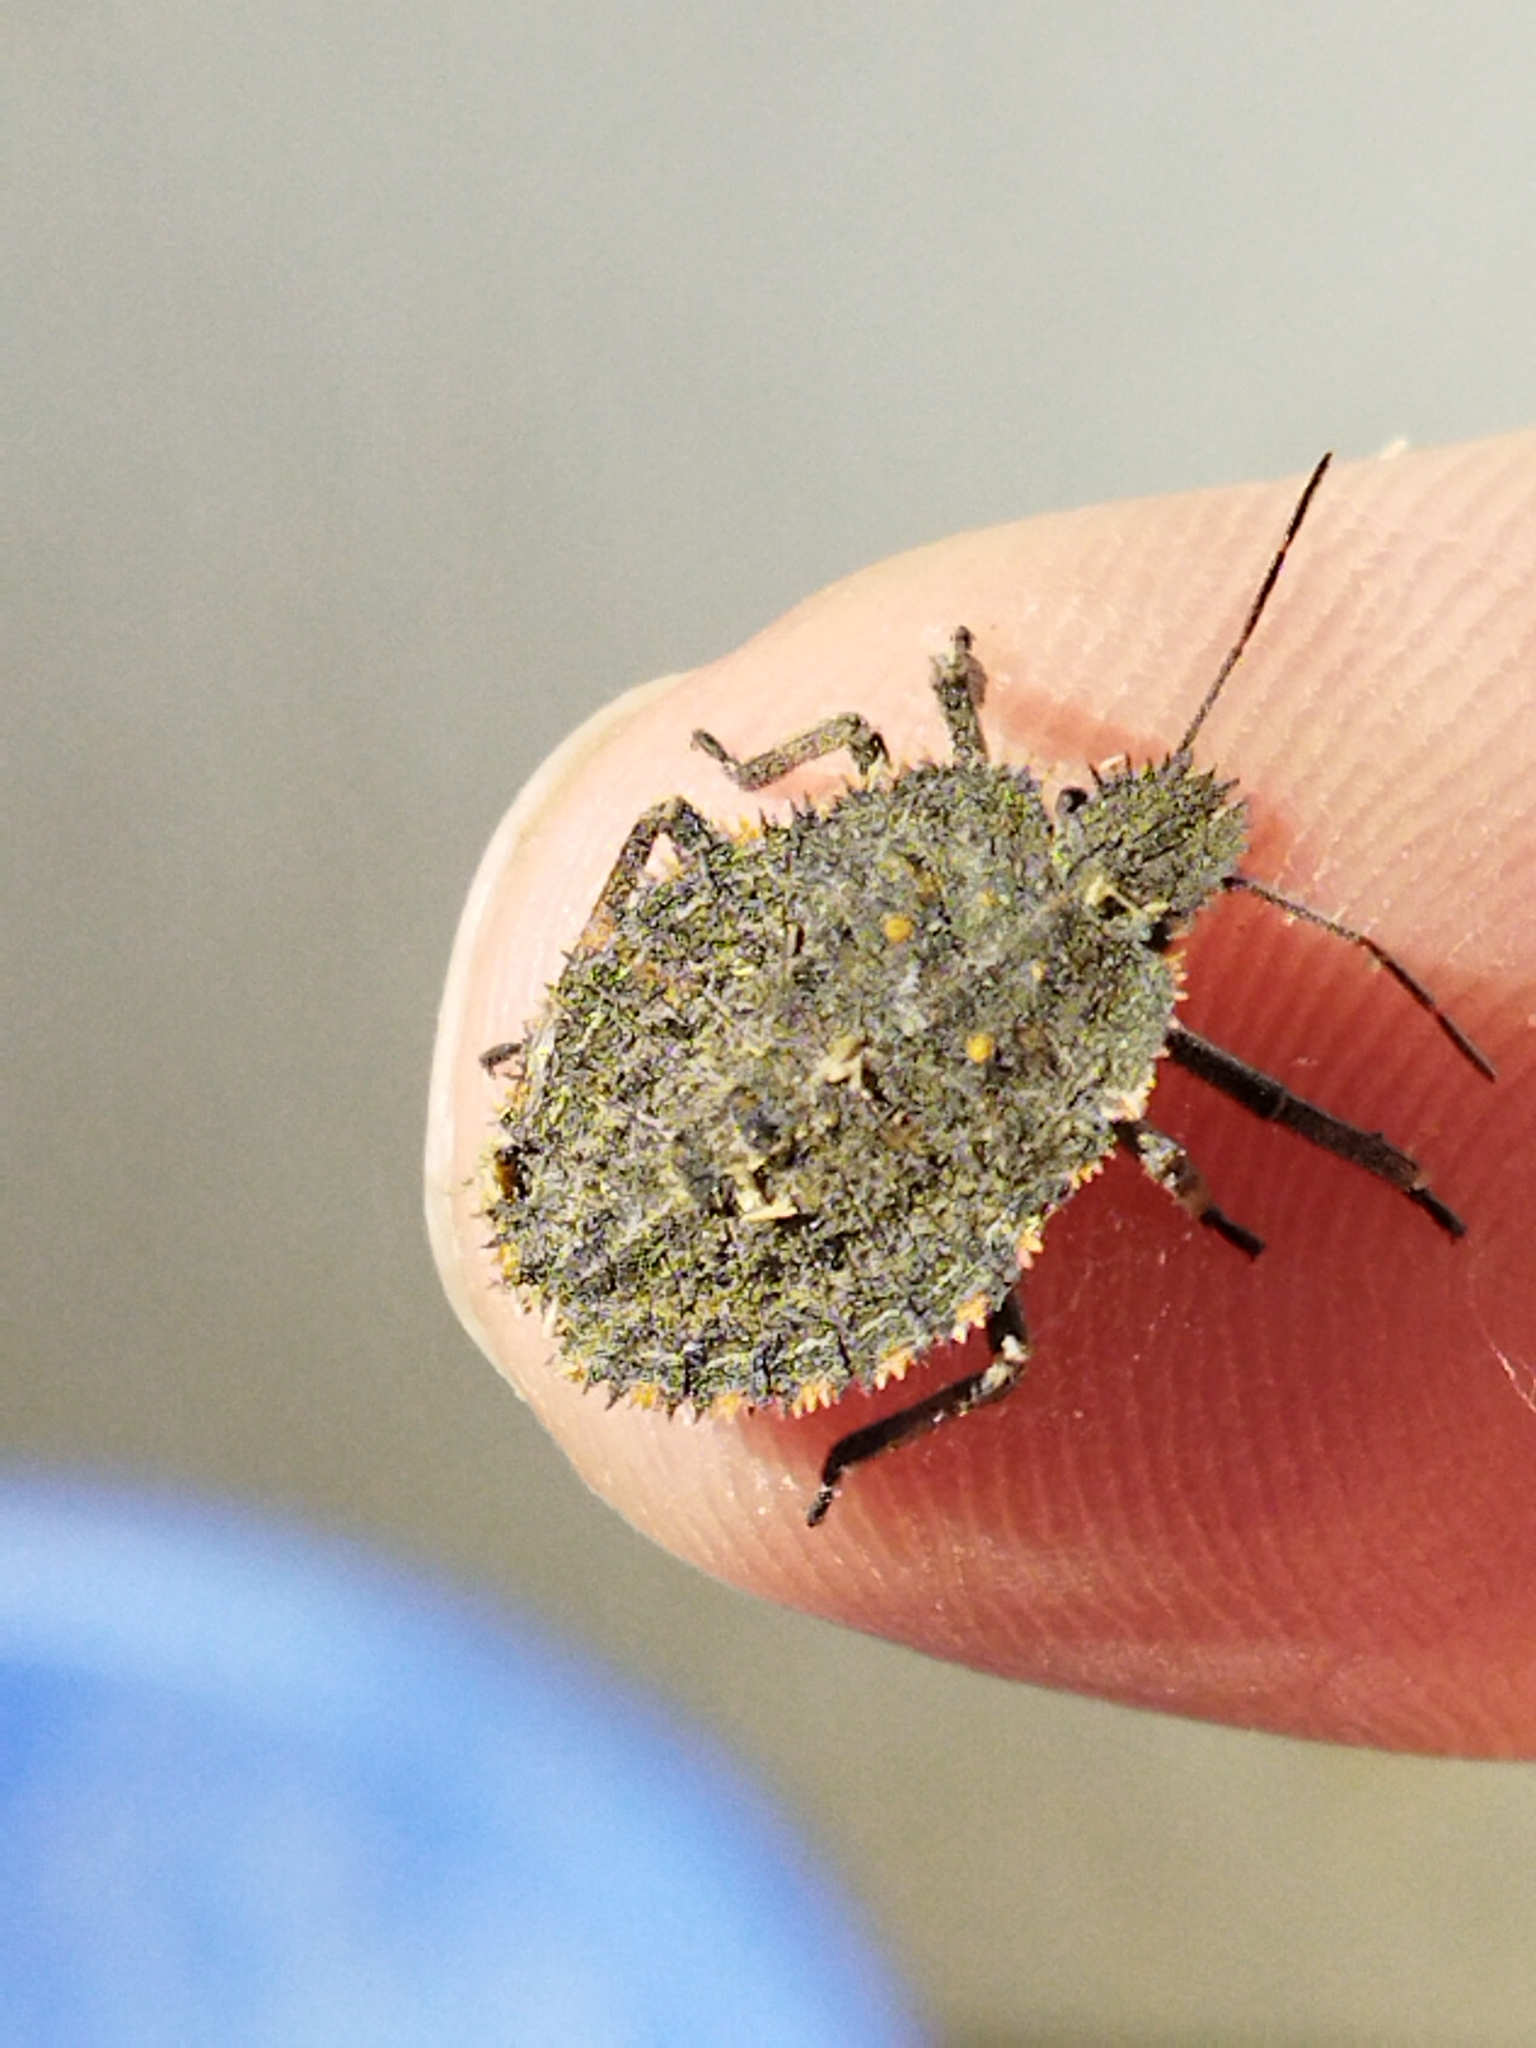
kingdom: Animalia
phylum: Arthropoda
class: Insecta
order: Hemiptera
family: Pentatomidae
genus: Mustha
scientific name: Mustha spinosula
